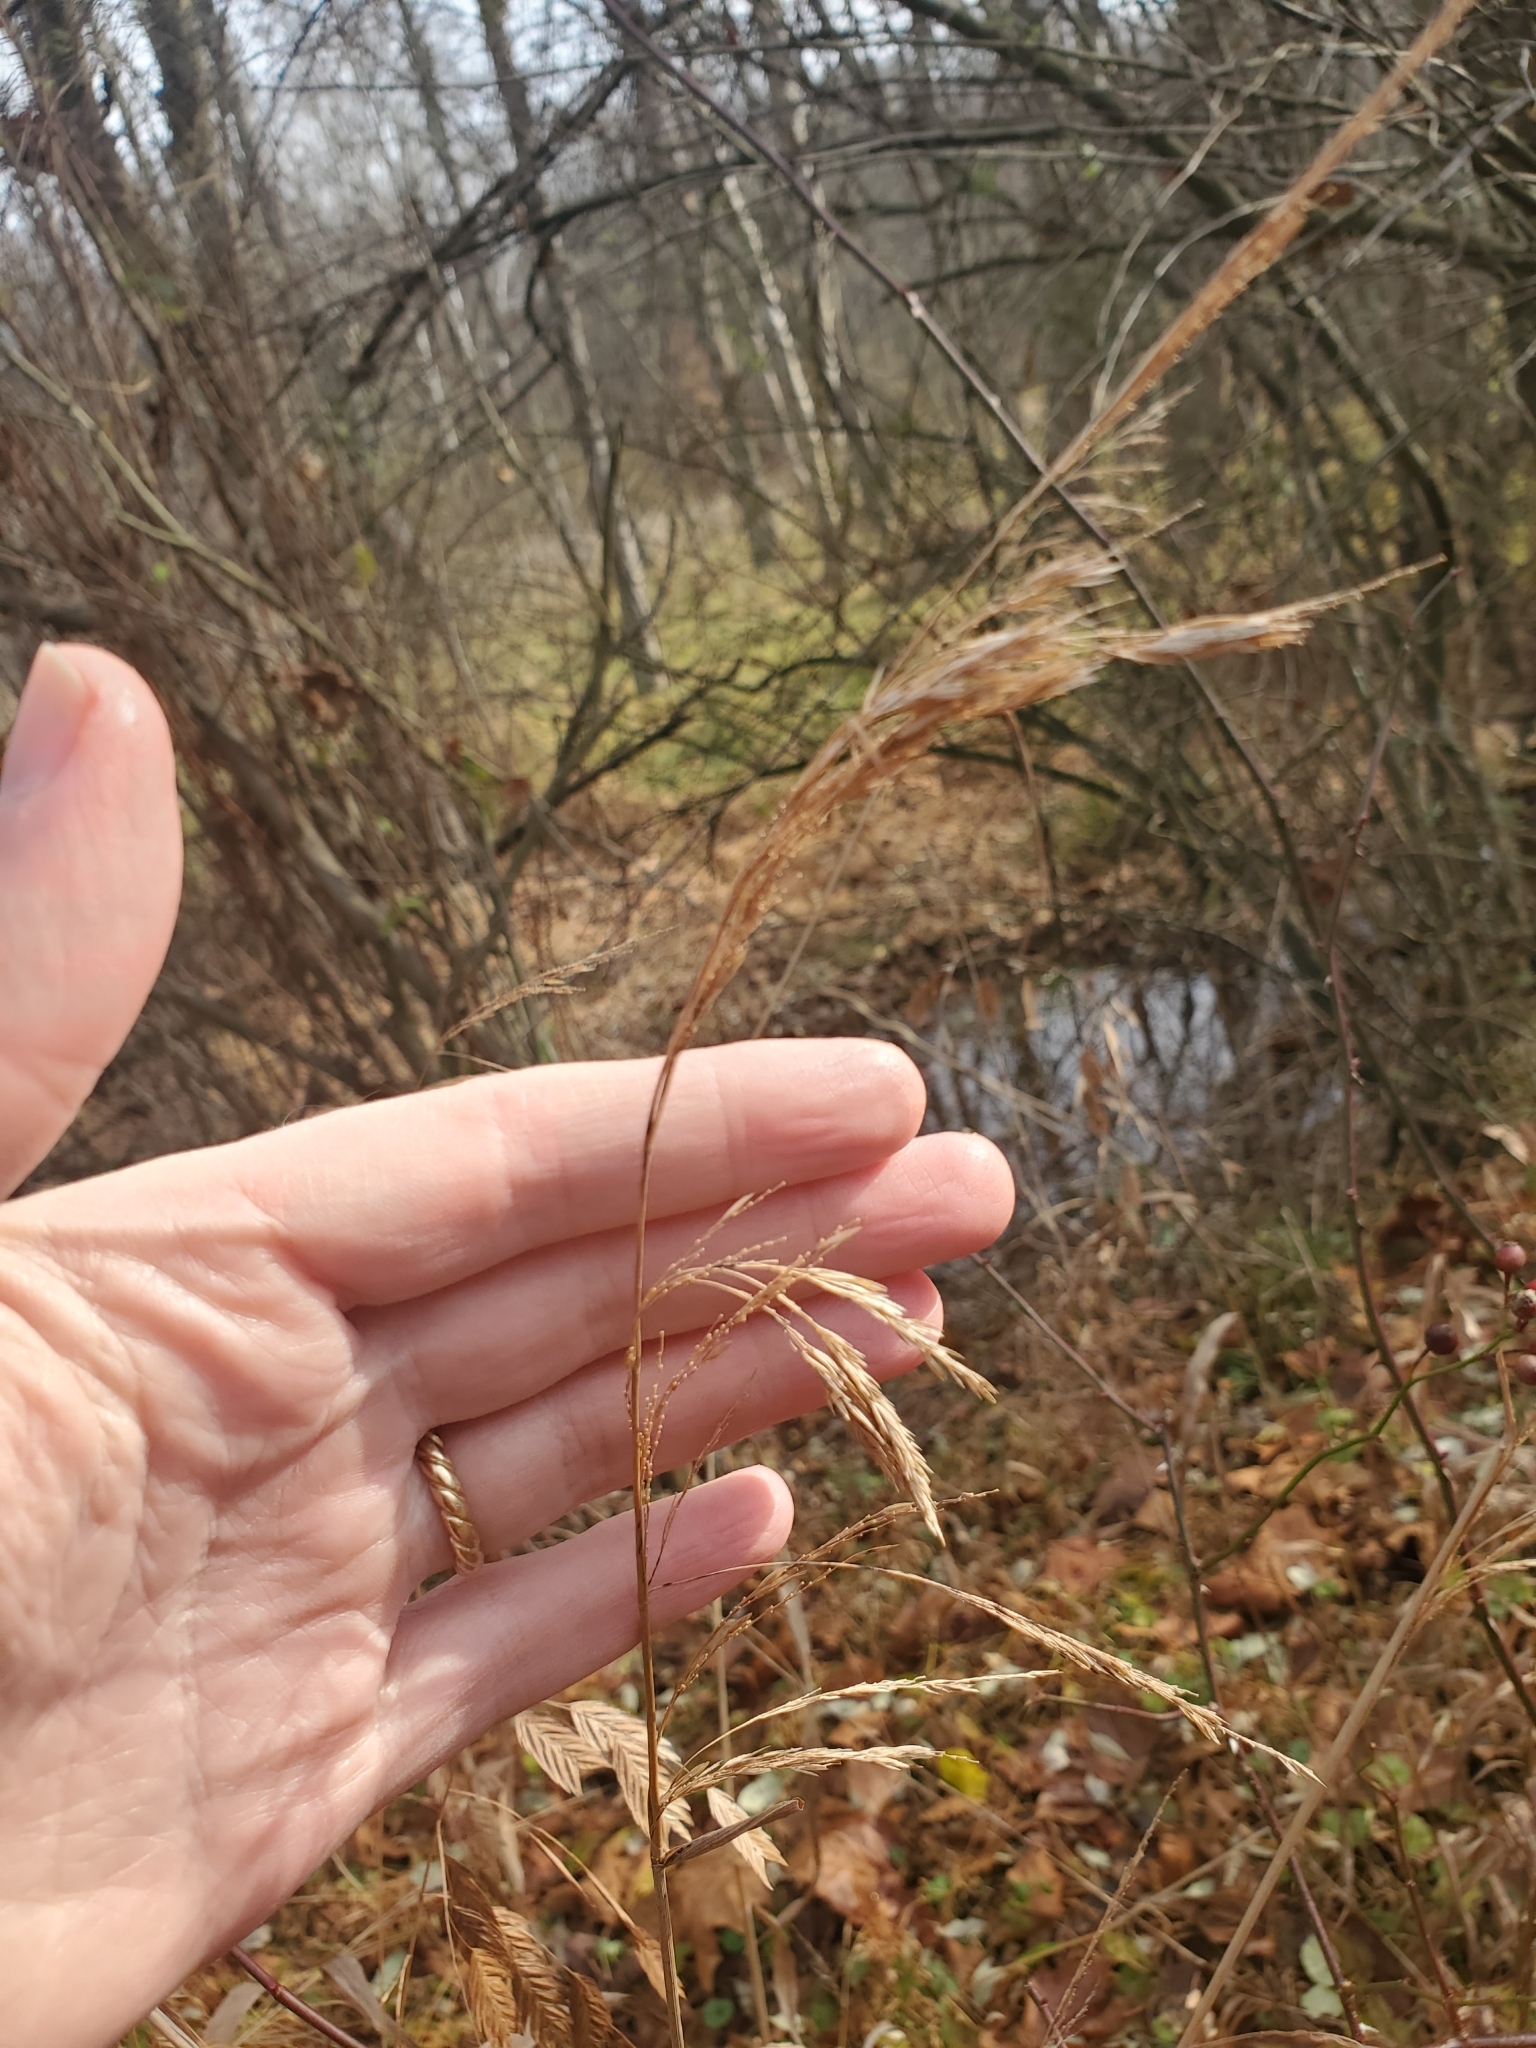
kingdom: Plantae
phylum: Tracheophyta
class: Liliopsida
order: Poales
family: Poaceae
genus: Cinna
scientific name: Cinna arundinacea
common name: Stout woodreed
